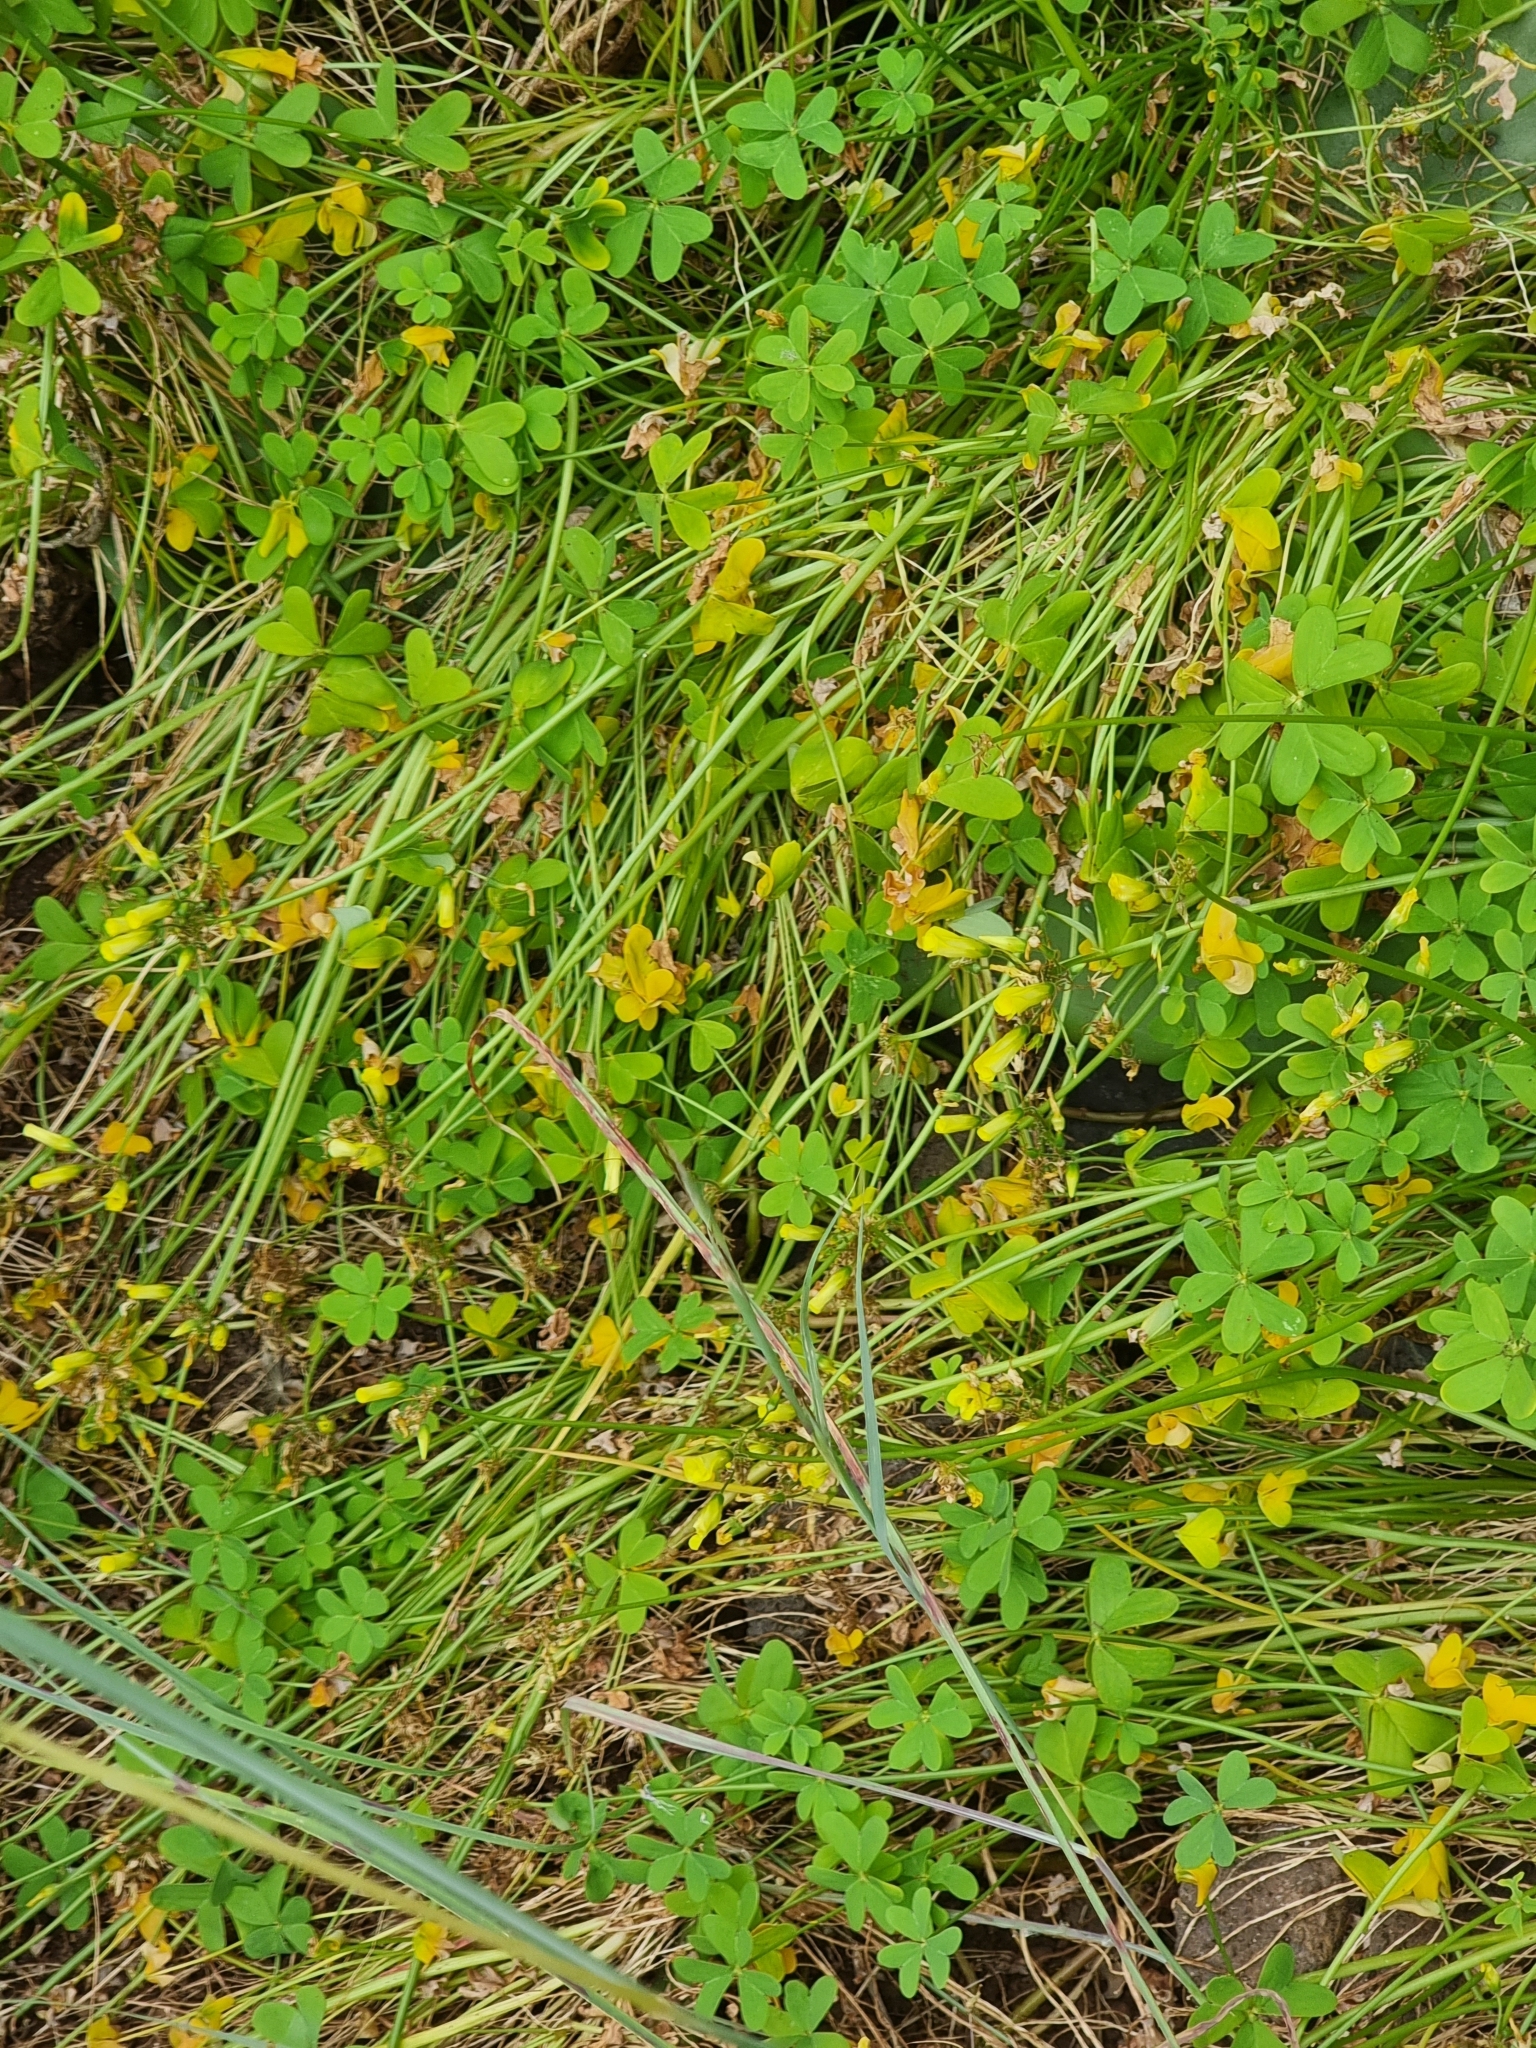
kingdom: Plantae
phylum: Tracheophyta
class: Magnoliopsida
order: Oxalidales
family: Oxalidaceae
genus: Oxalis
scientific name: Oxalis pes-caprae
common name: Bermuda-buttercup
